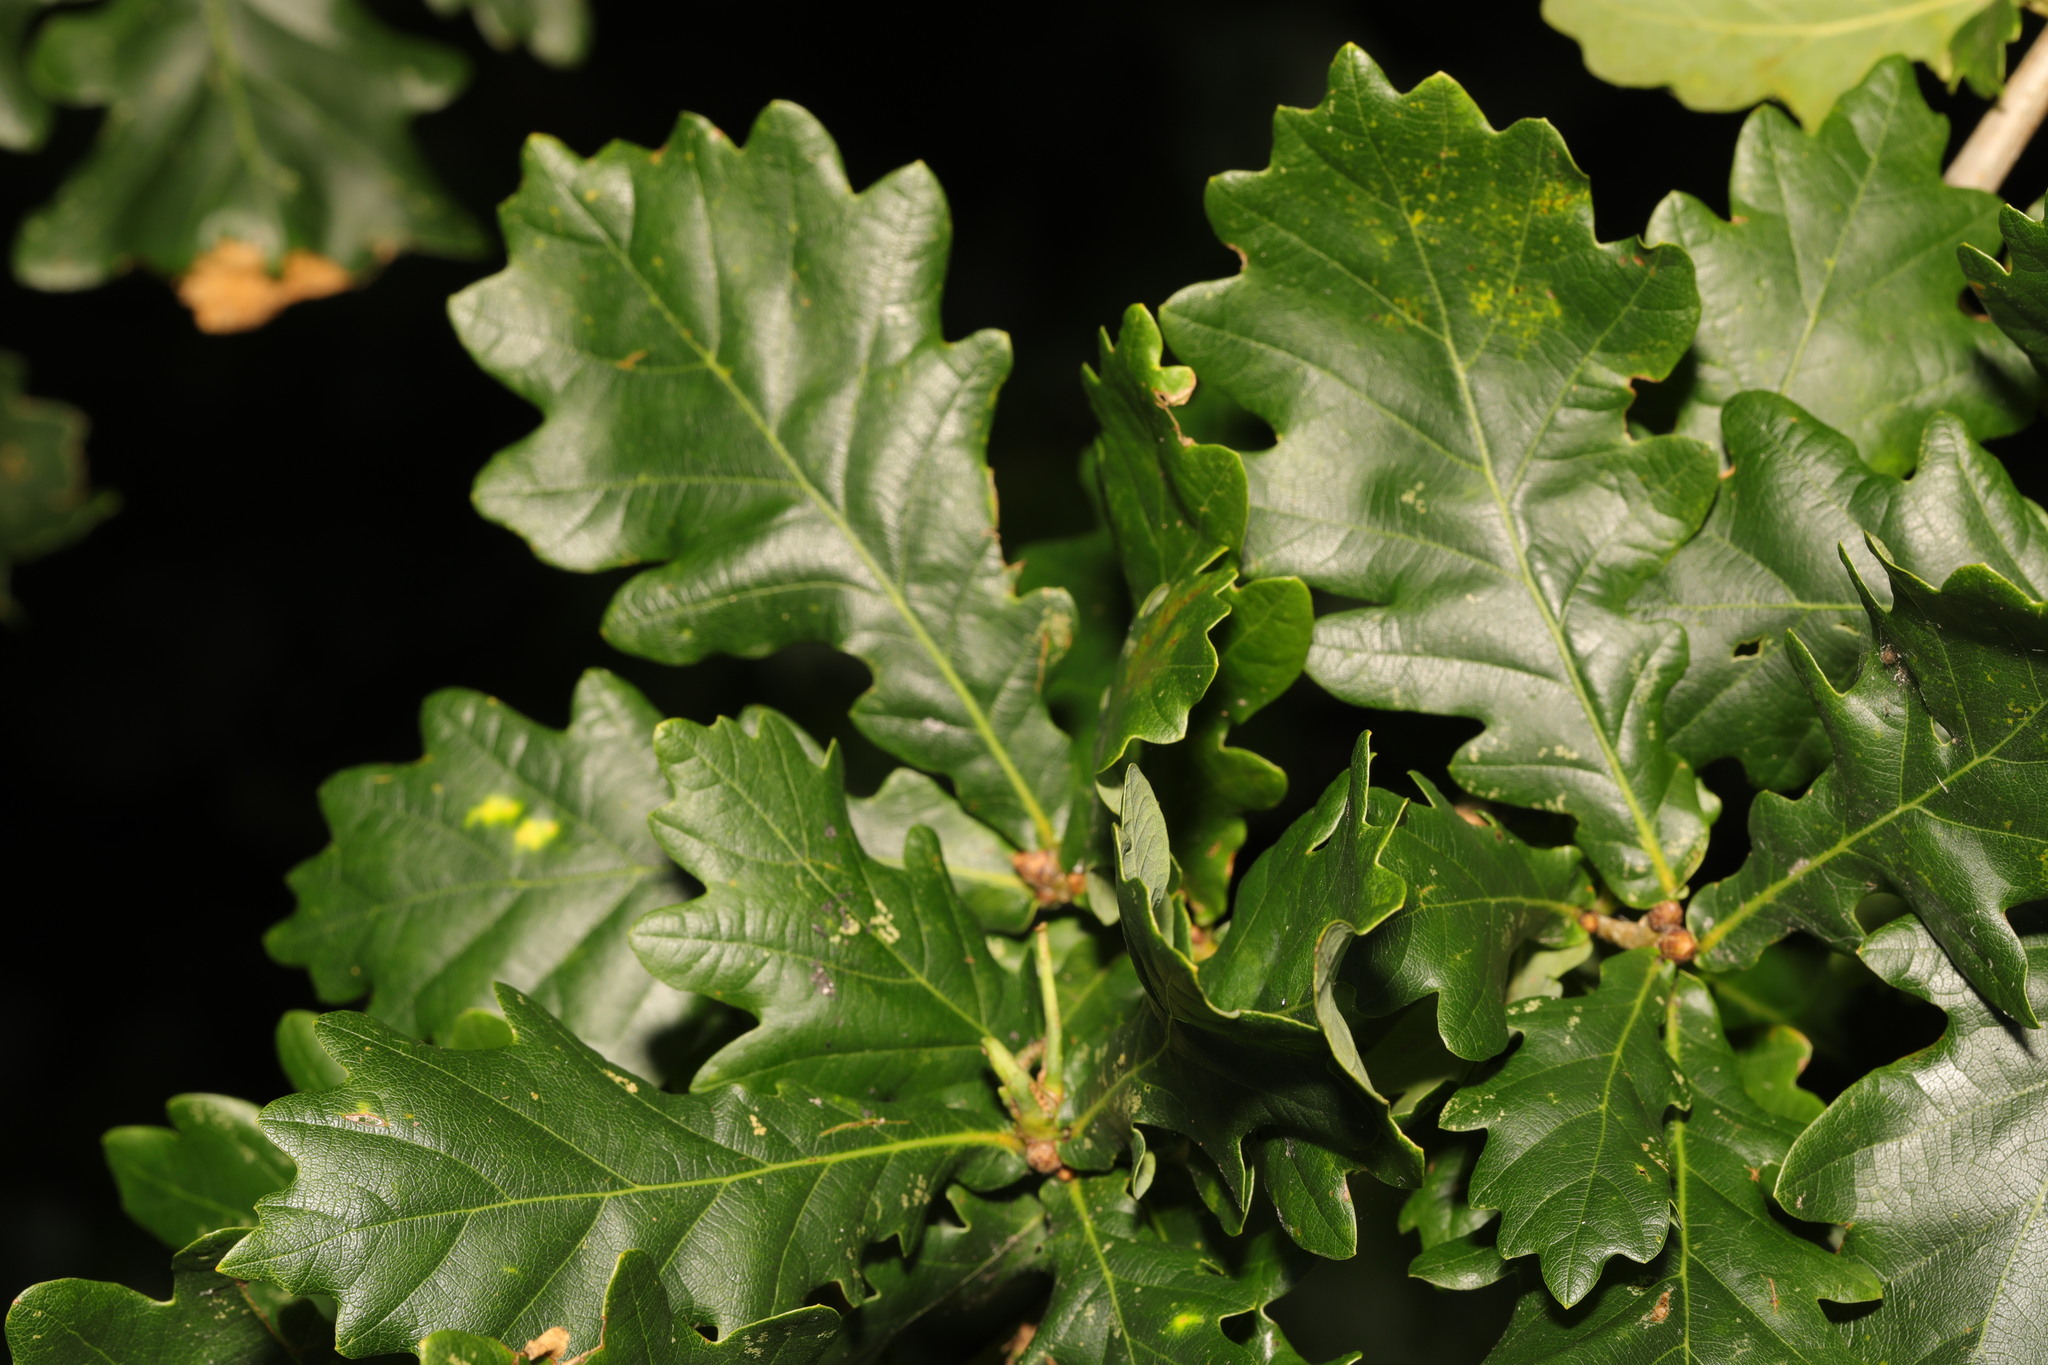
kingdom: Plantae
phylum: Tracheophyta
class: Magnoliopsida
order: Fagales
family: Fagaceae
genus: Quercus
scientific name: Quercus robur
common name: Pedunculate oak
